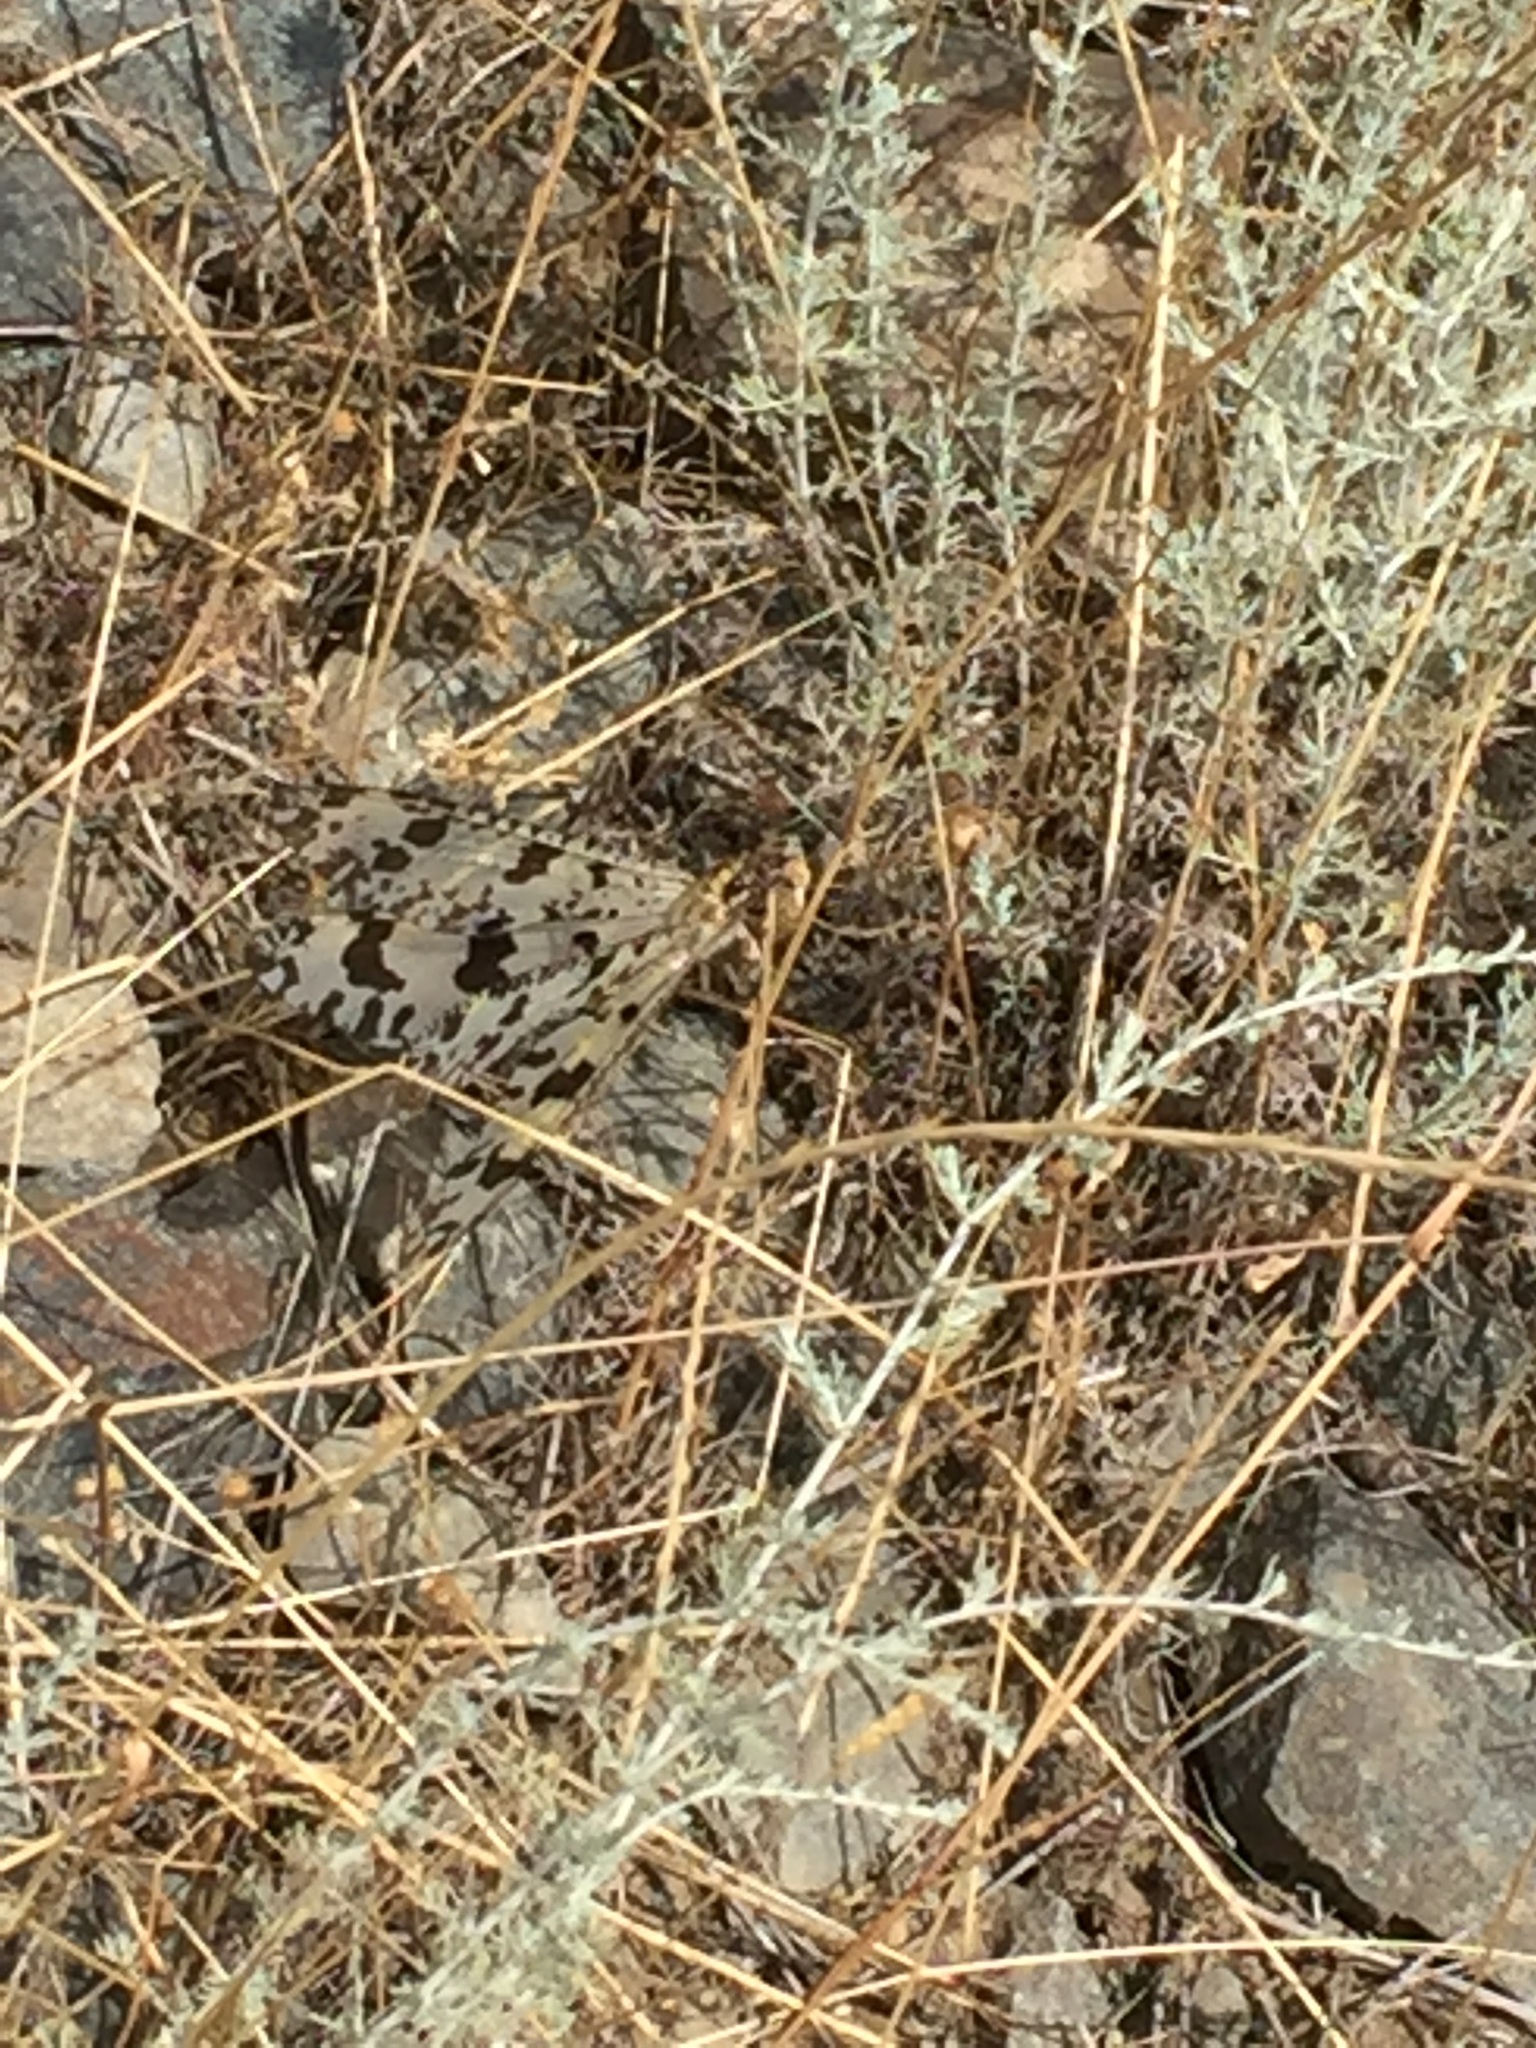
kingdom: Animalia
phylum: Arthropoda
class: Insecta
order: Neuroptera
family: Myrmeleontidae
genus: Palpares
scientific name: Palpares libelluloides
